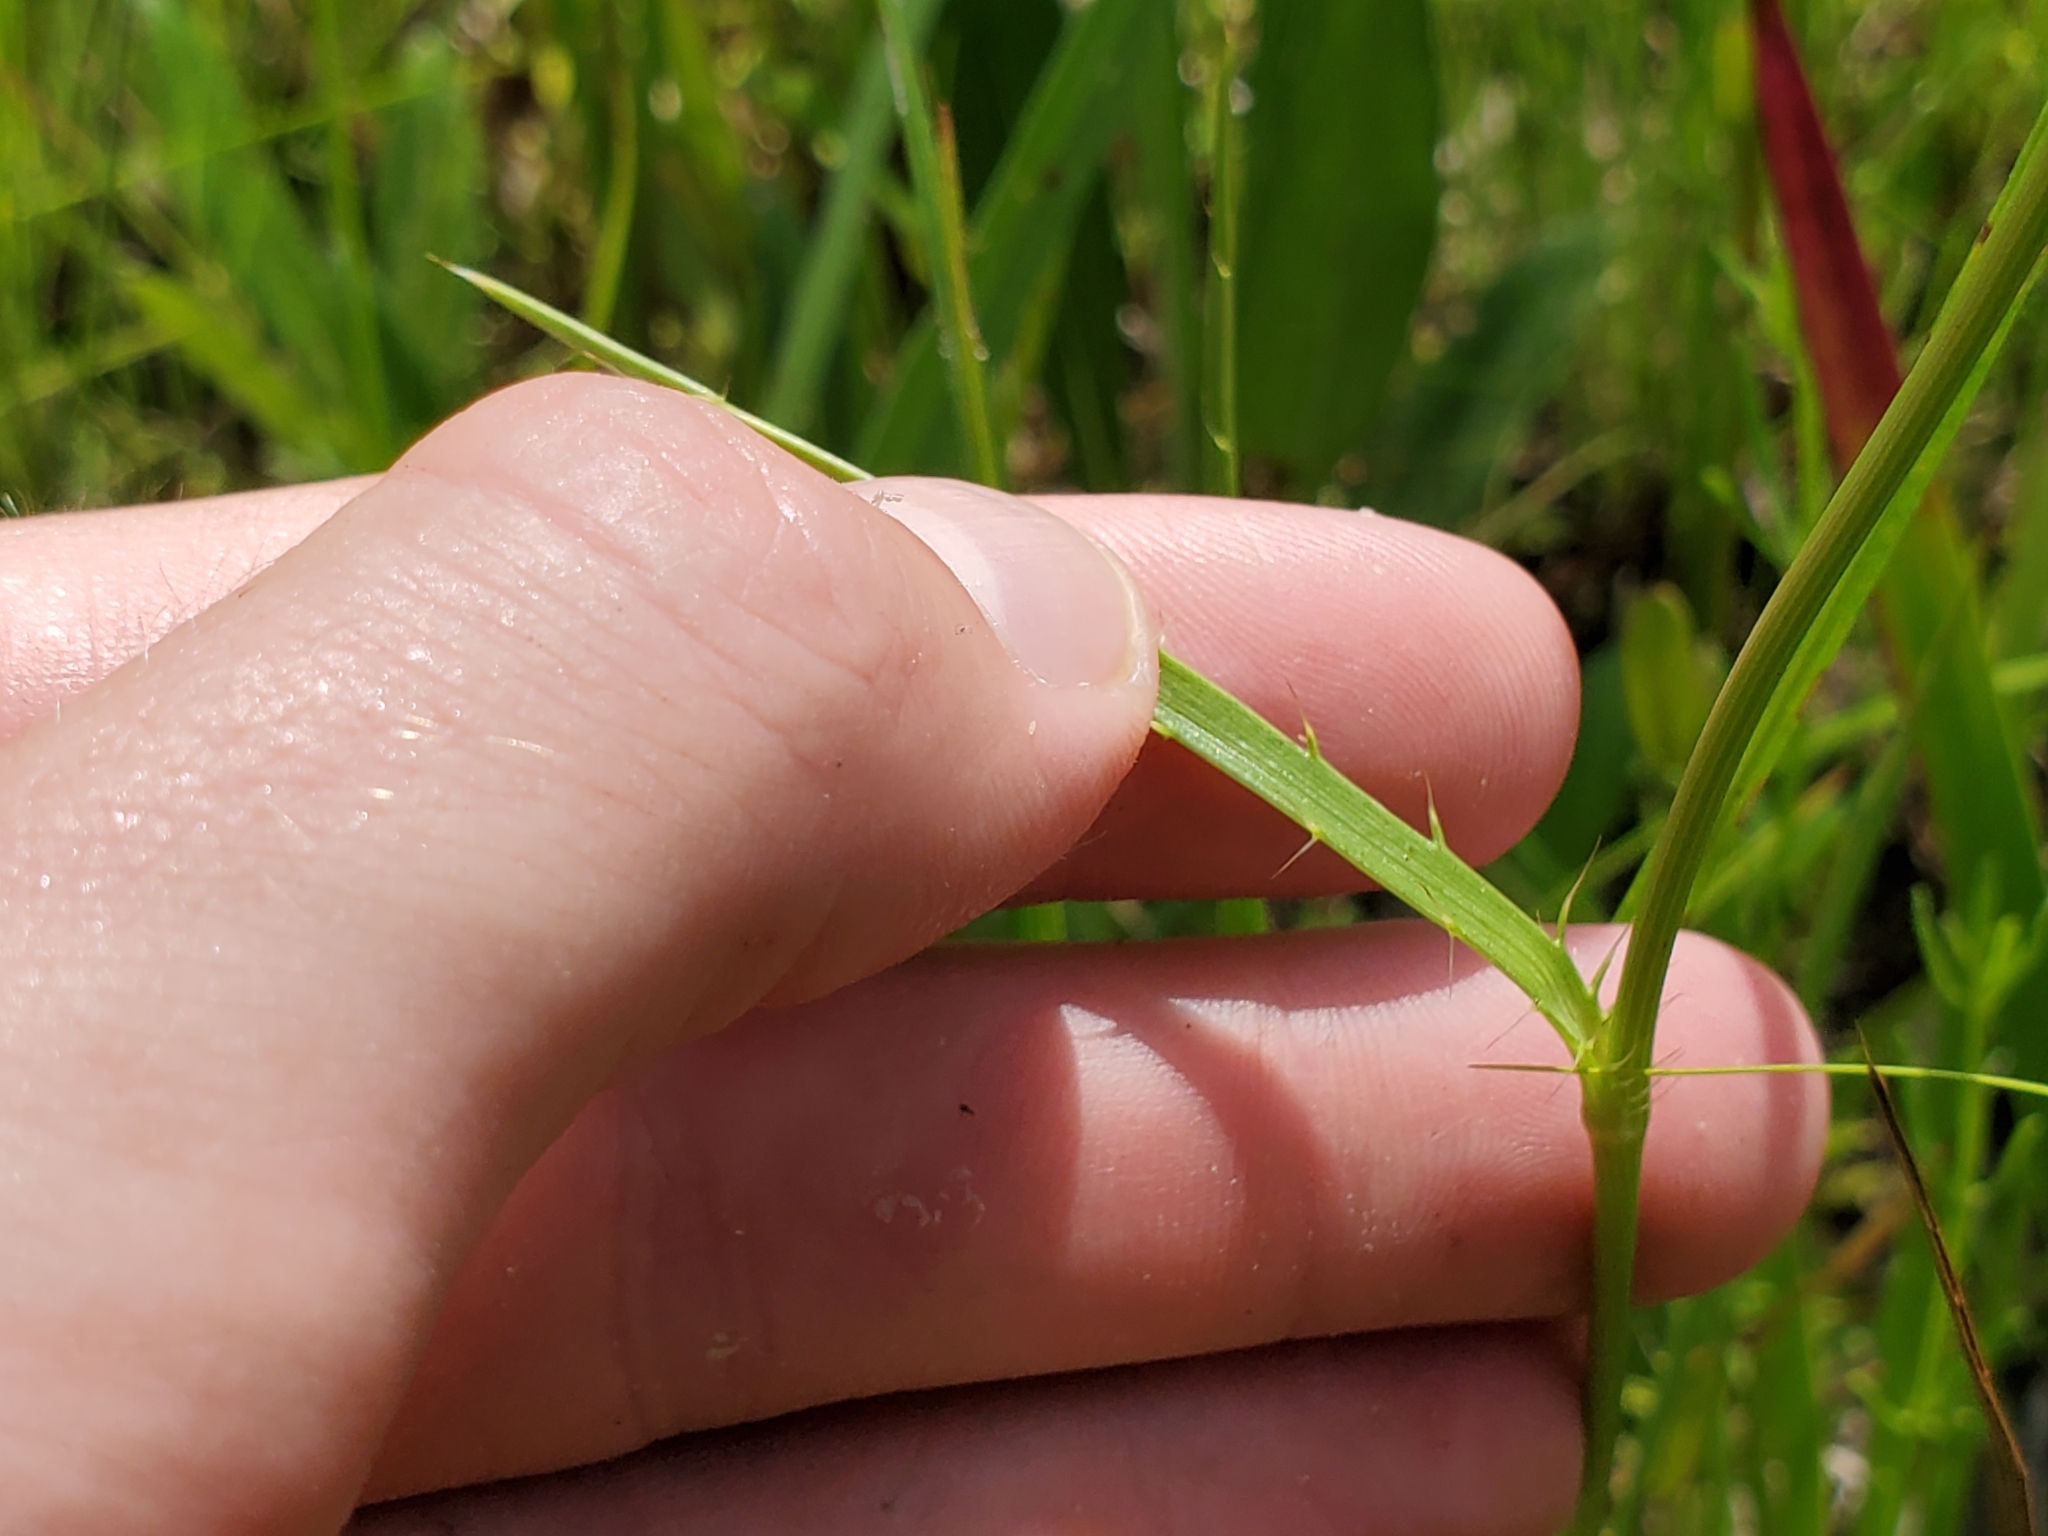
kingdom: Plantae
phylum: Tracheophyta
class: Magnoliopsida
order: Apiales
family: Apiaceae
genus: Eryngium
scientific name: Eryngium yuccifolium
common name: Button eryngo
